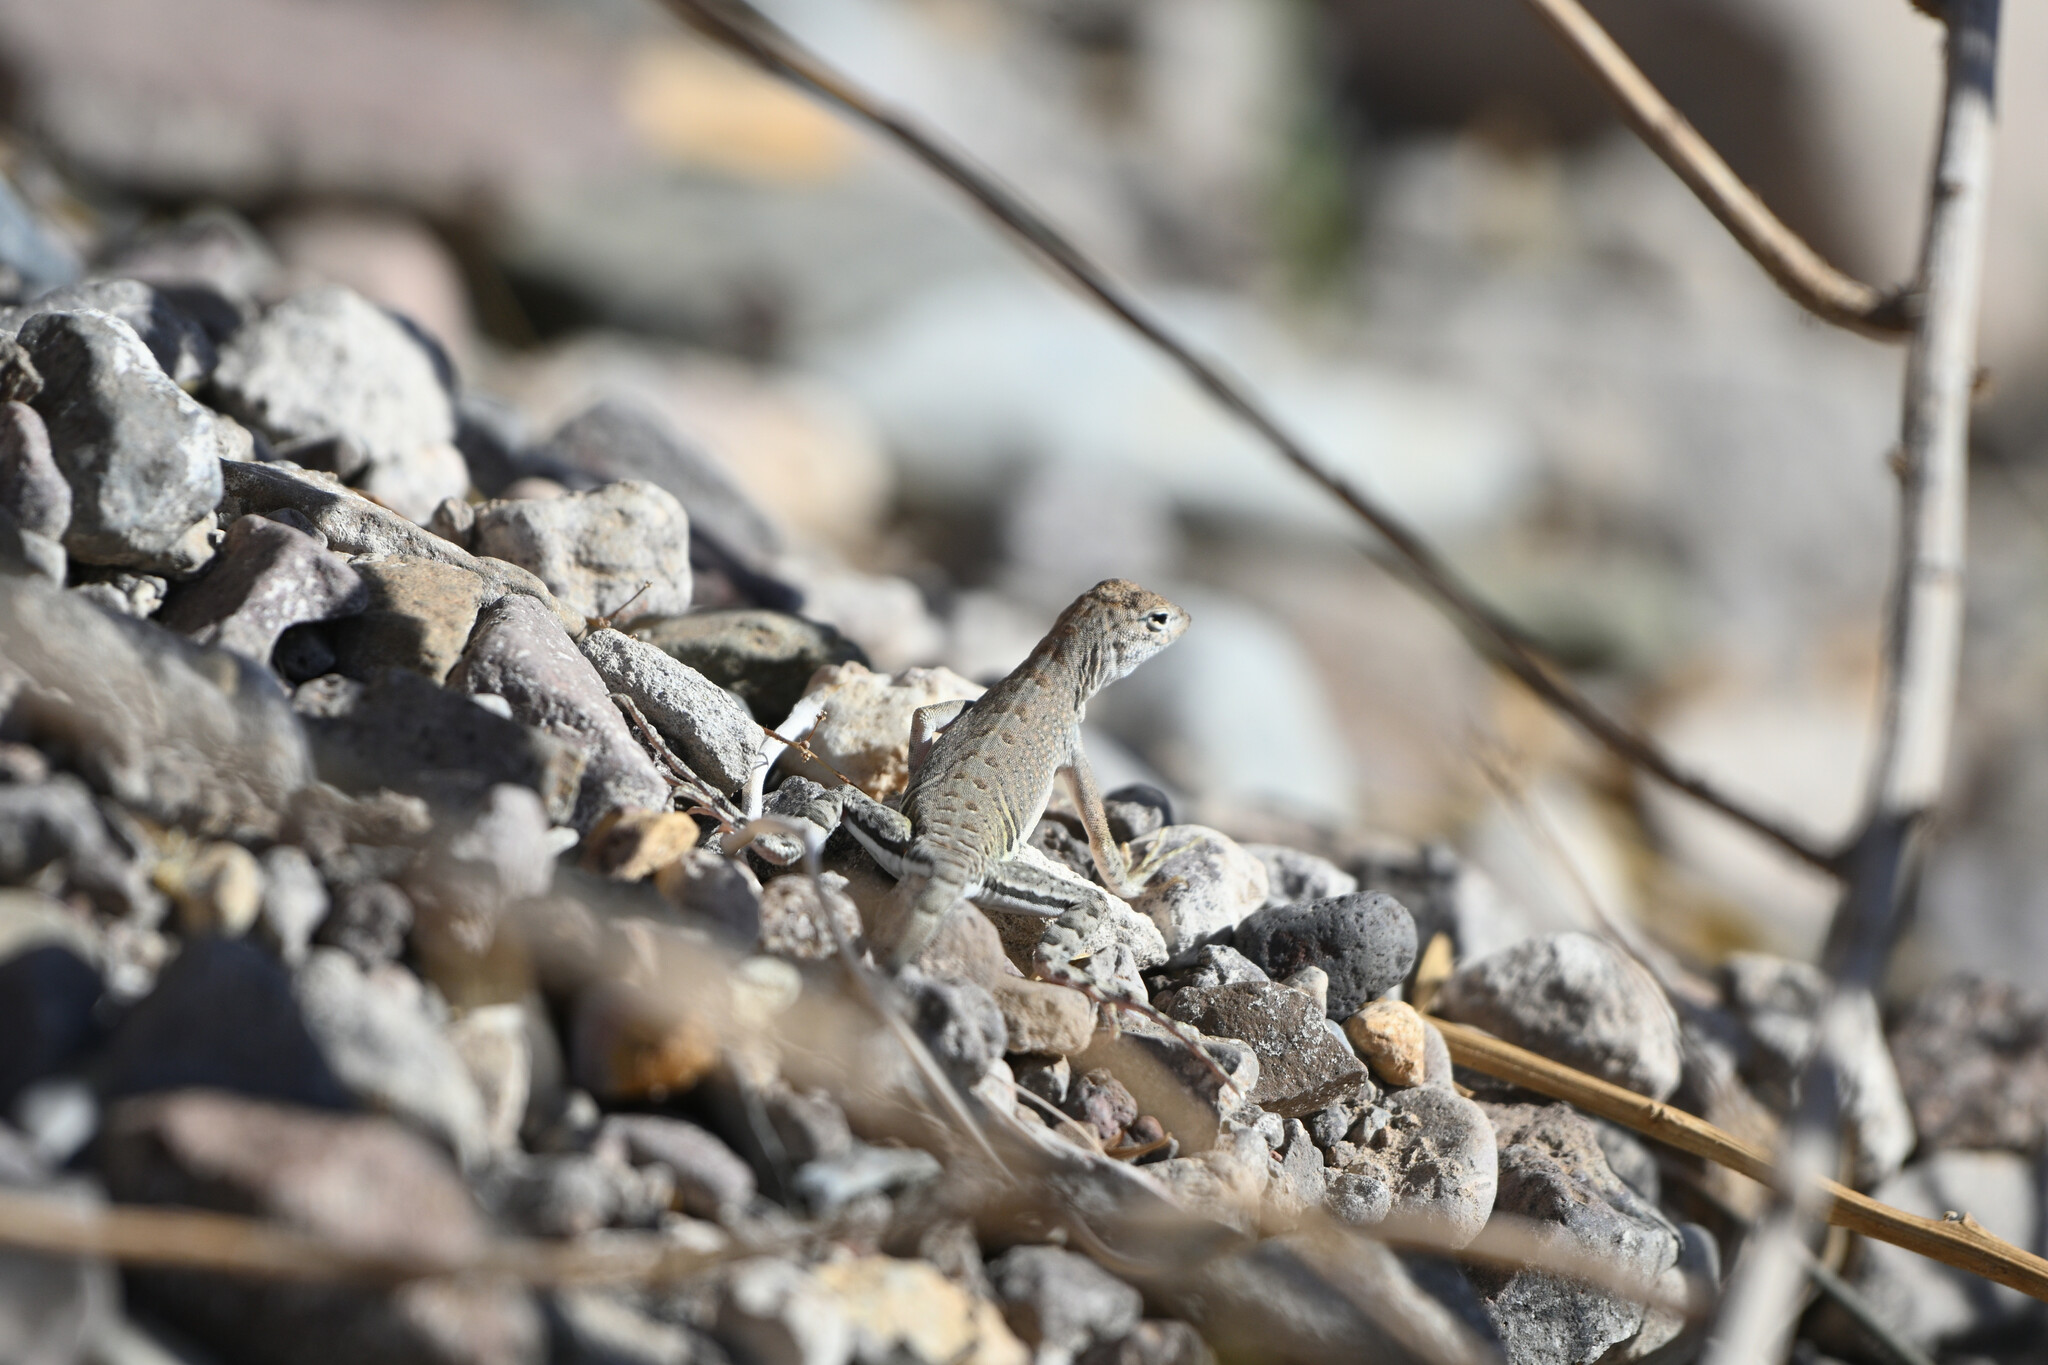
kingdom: Animalia
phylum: Chordata
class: Squamata
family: Phrynosomatidae
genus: Cophosaurus
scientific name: Cophosaurus texanus
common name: Greater earless lizard
